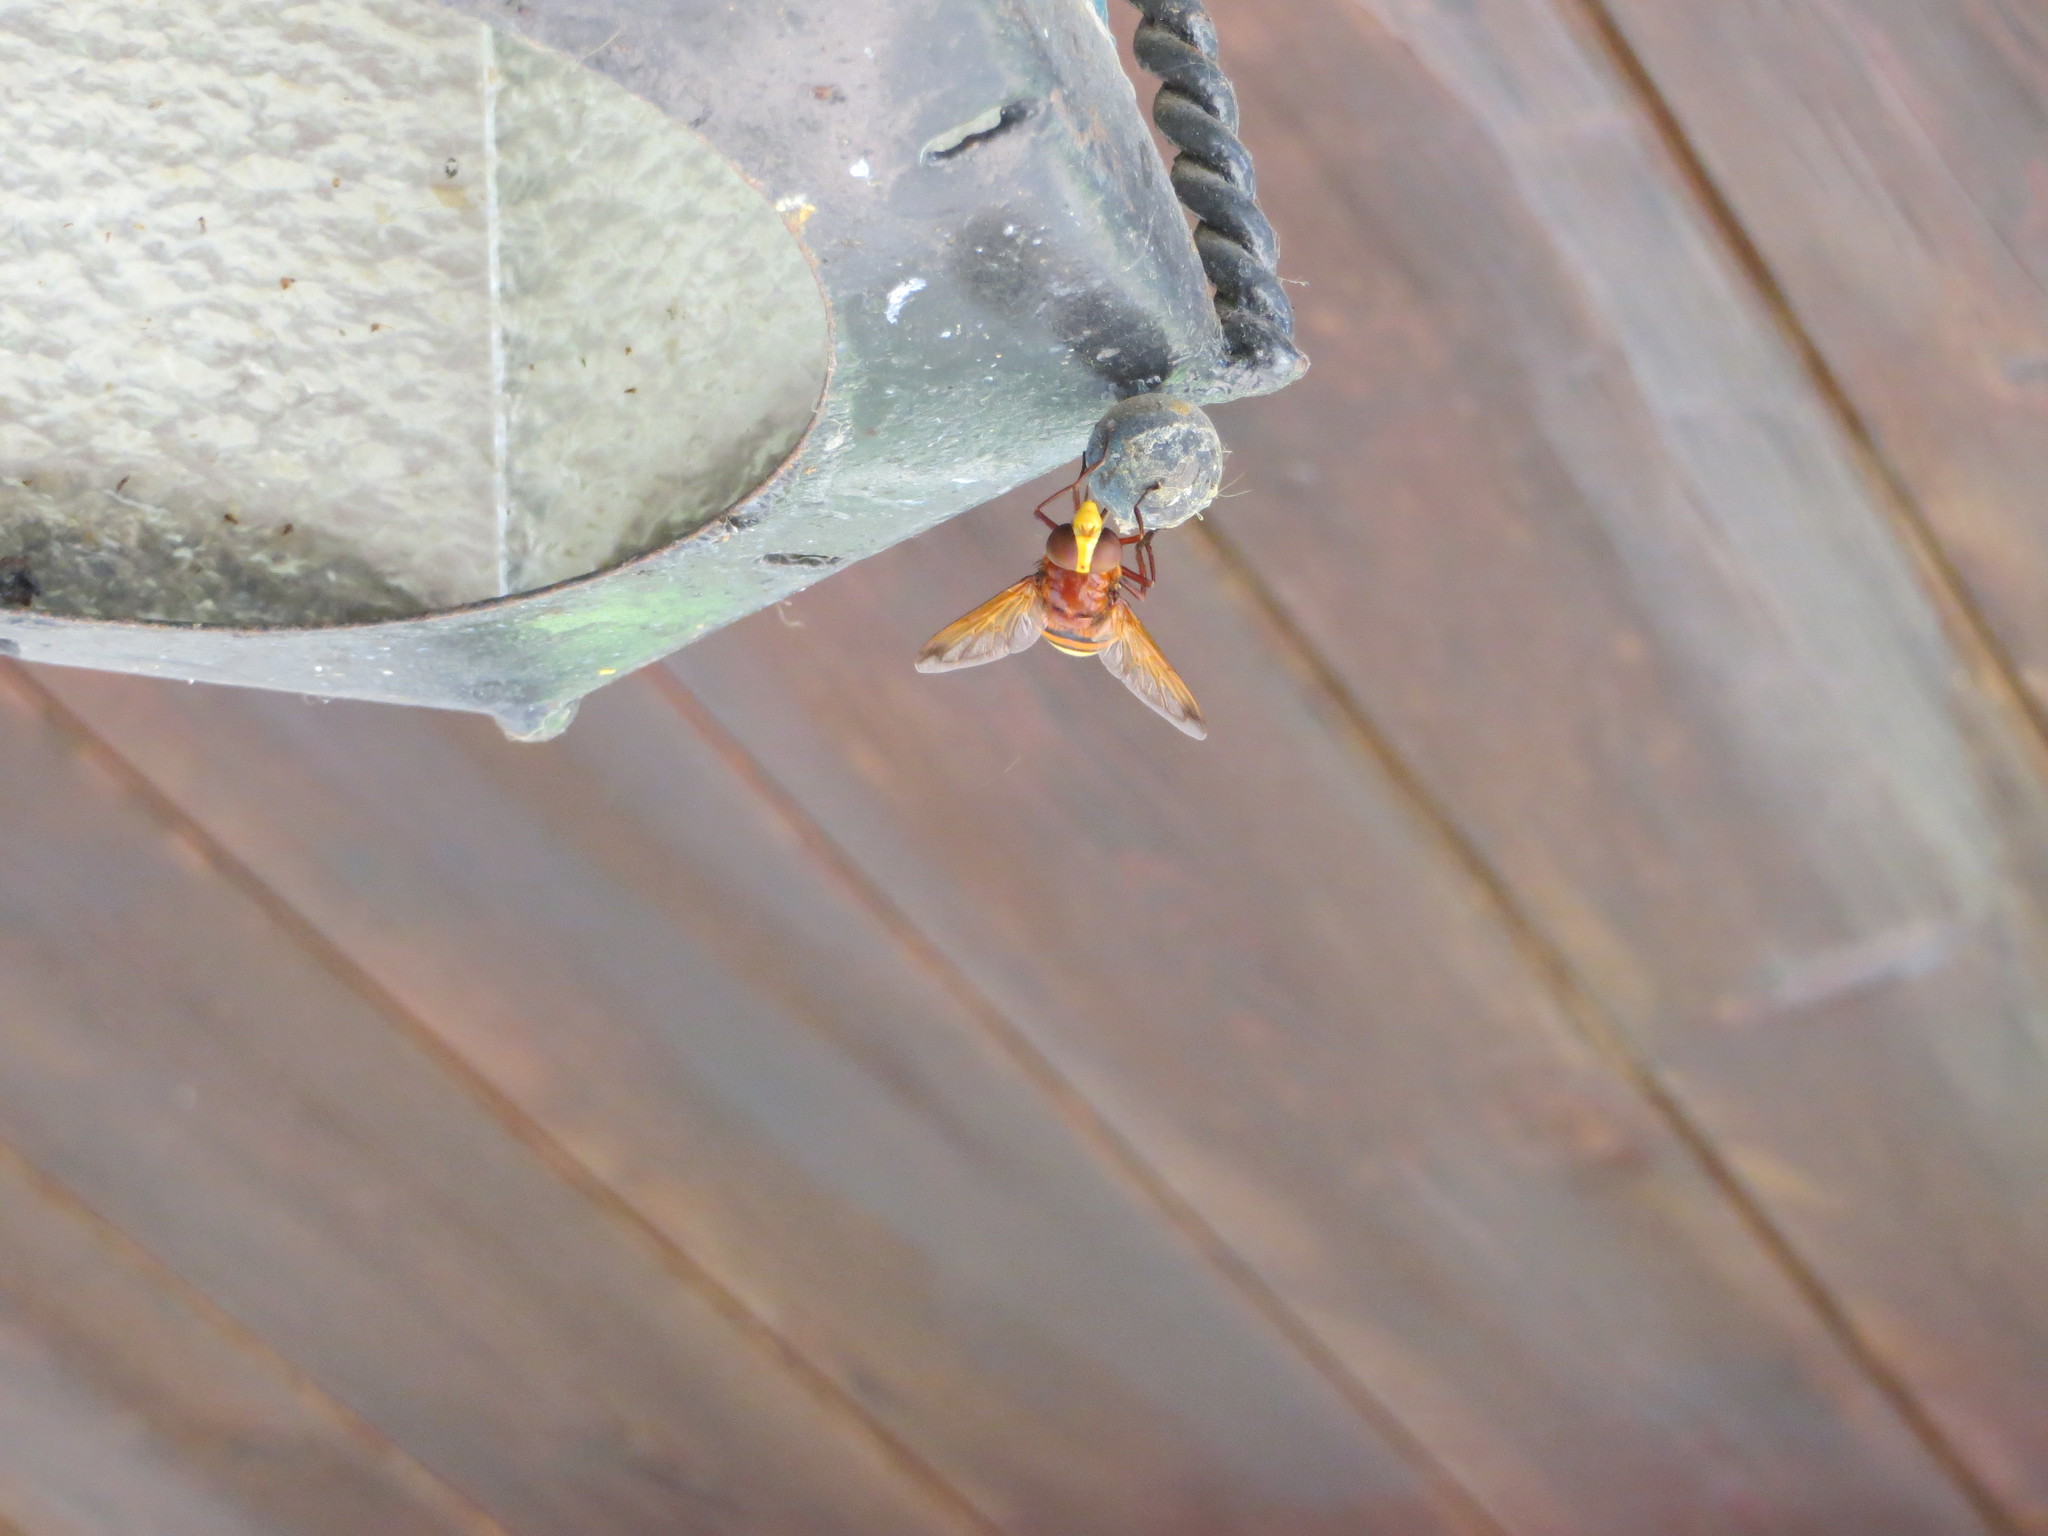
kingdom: Animalia
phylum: Arthropoda
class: Insecta
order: Diptera
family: Syrphidae
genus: Volucella
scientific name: Volucella zonaria
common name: Hornet hoverfly
